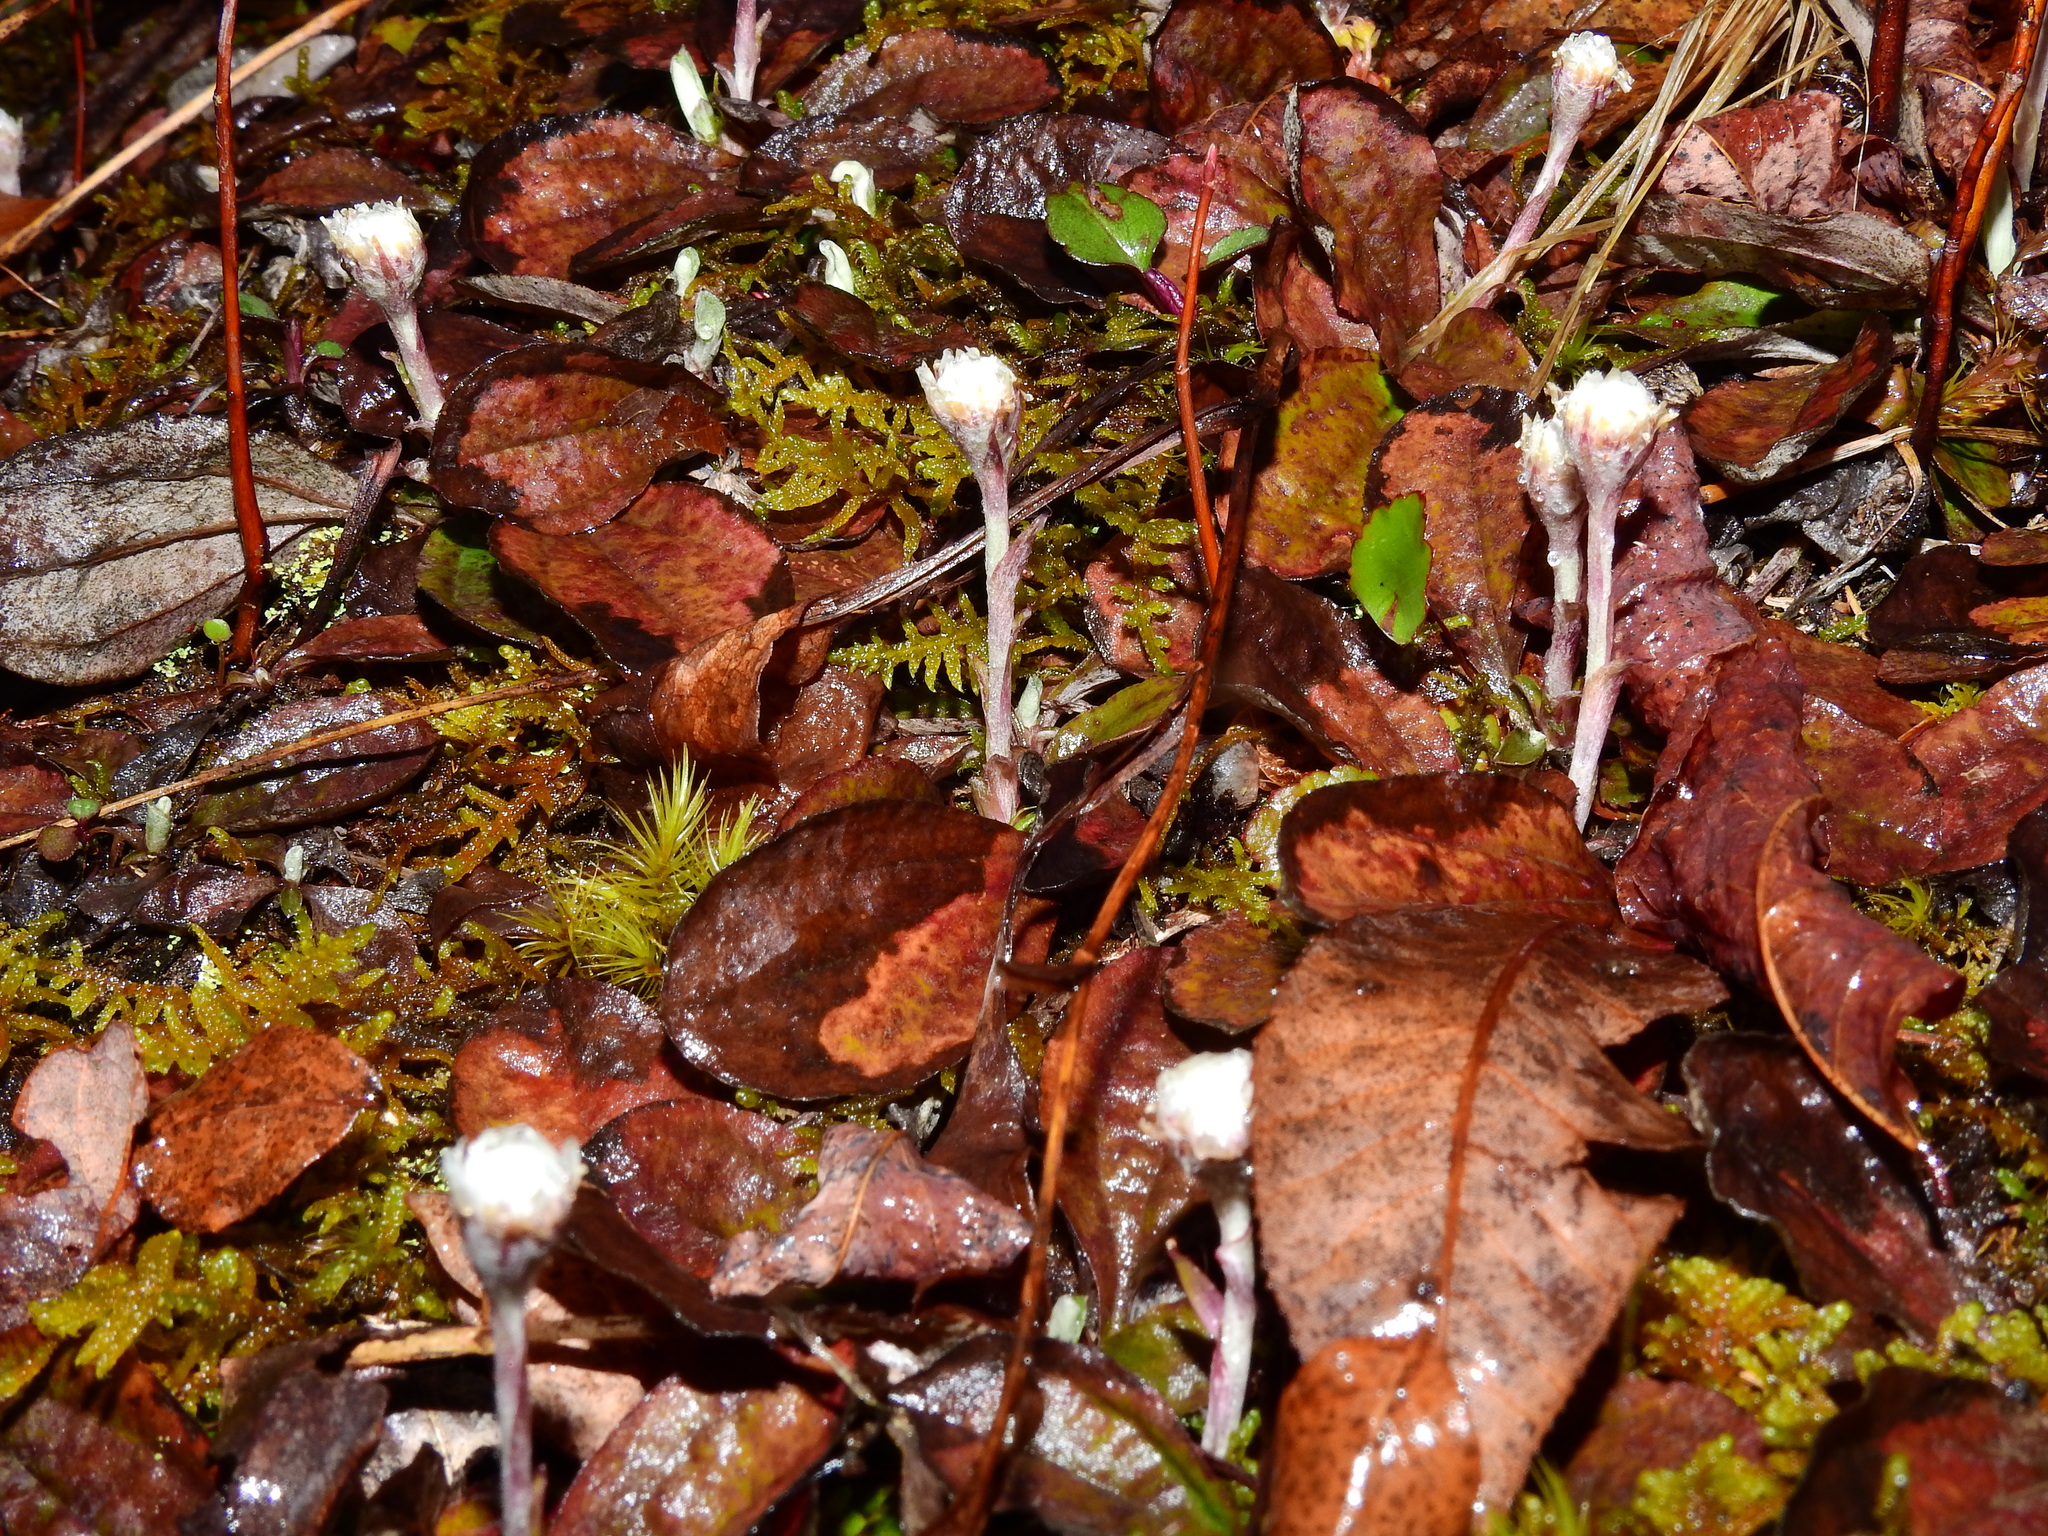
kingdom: Plantae
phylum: Tracheophyta
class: Magnoliopsida
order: Asterales
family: Asteraceae
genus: Antennaria
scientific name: Antennaria solitaria
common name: Single-head pussytoes
